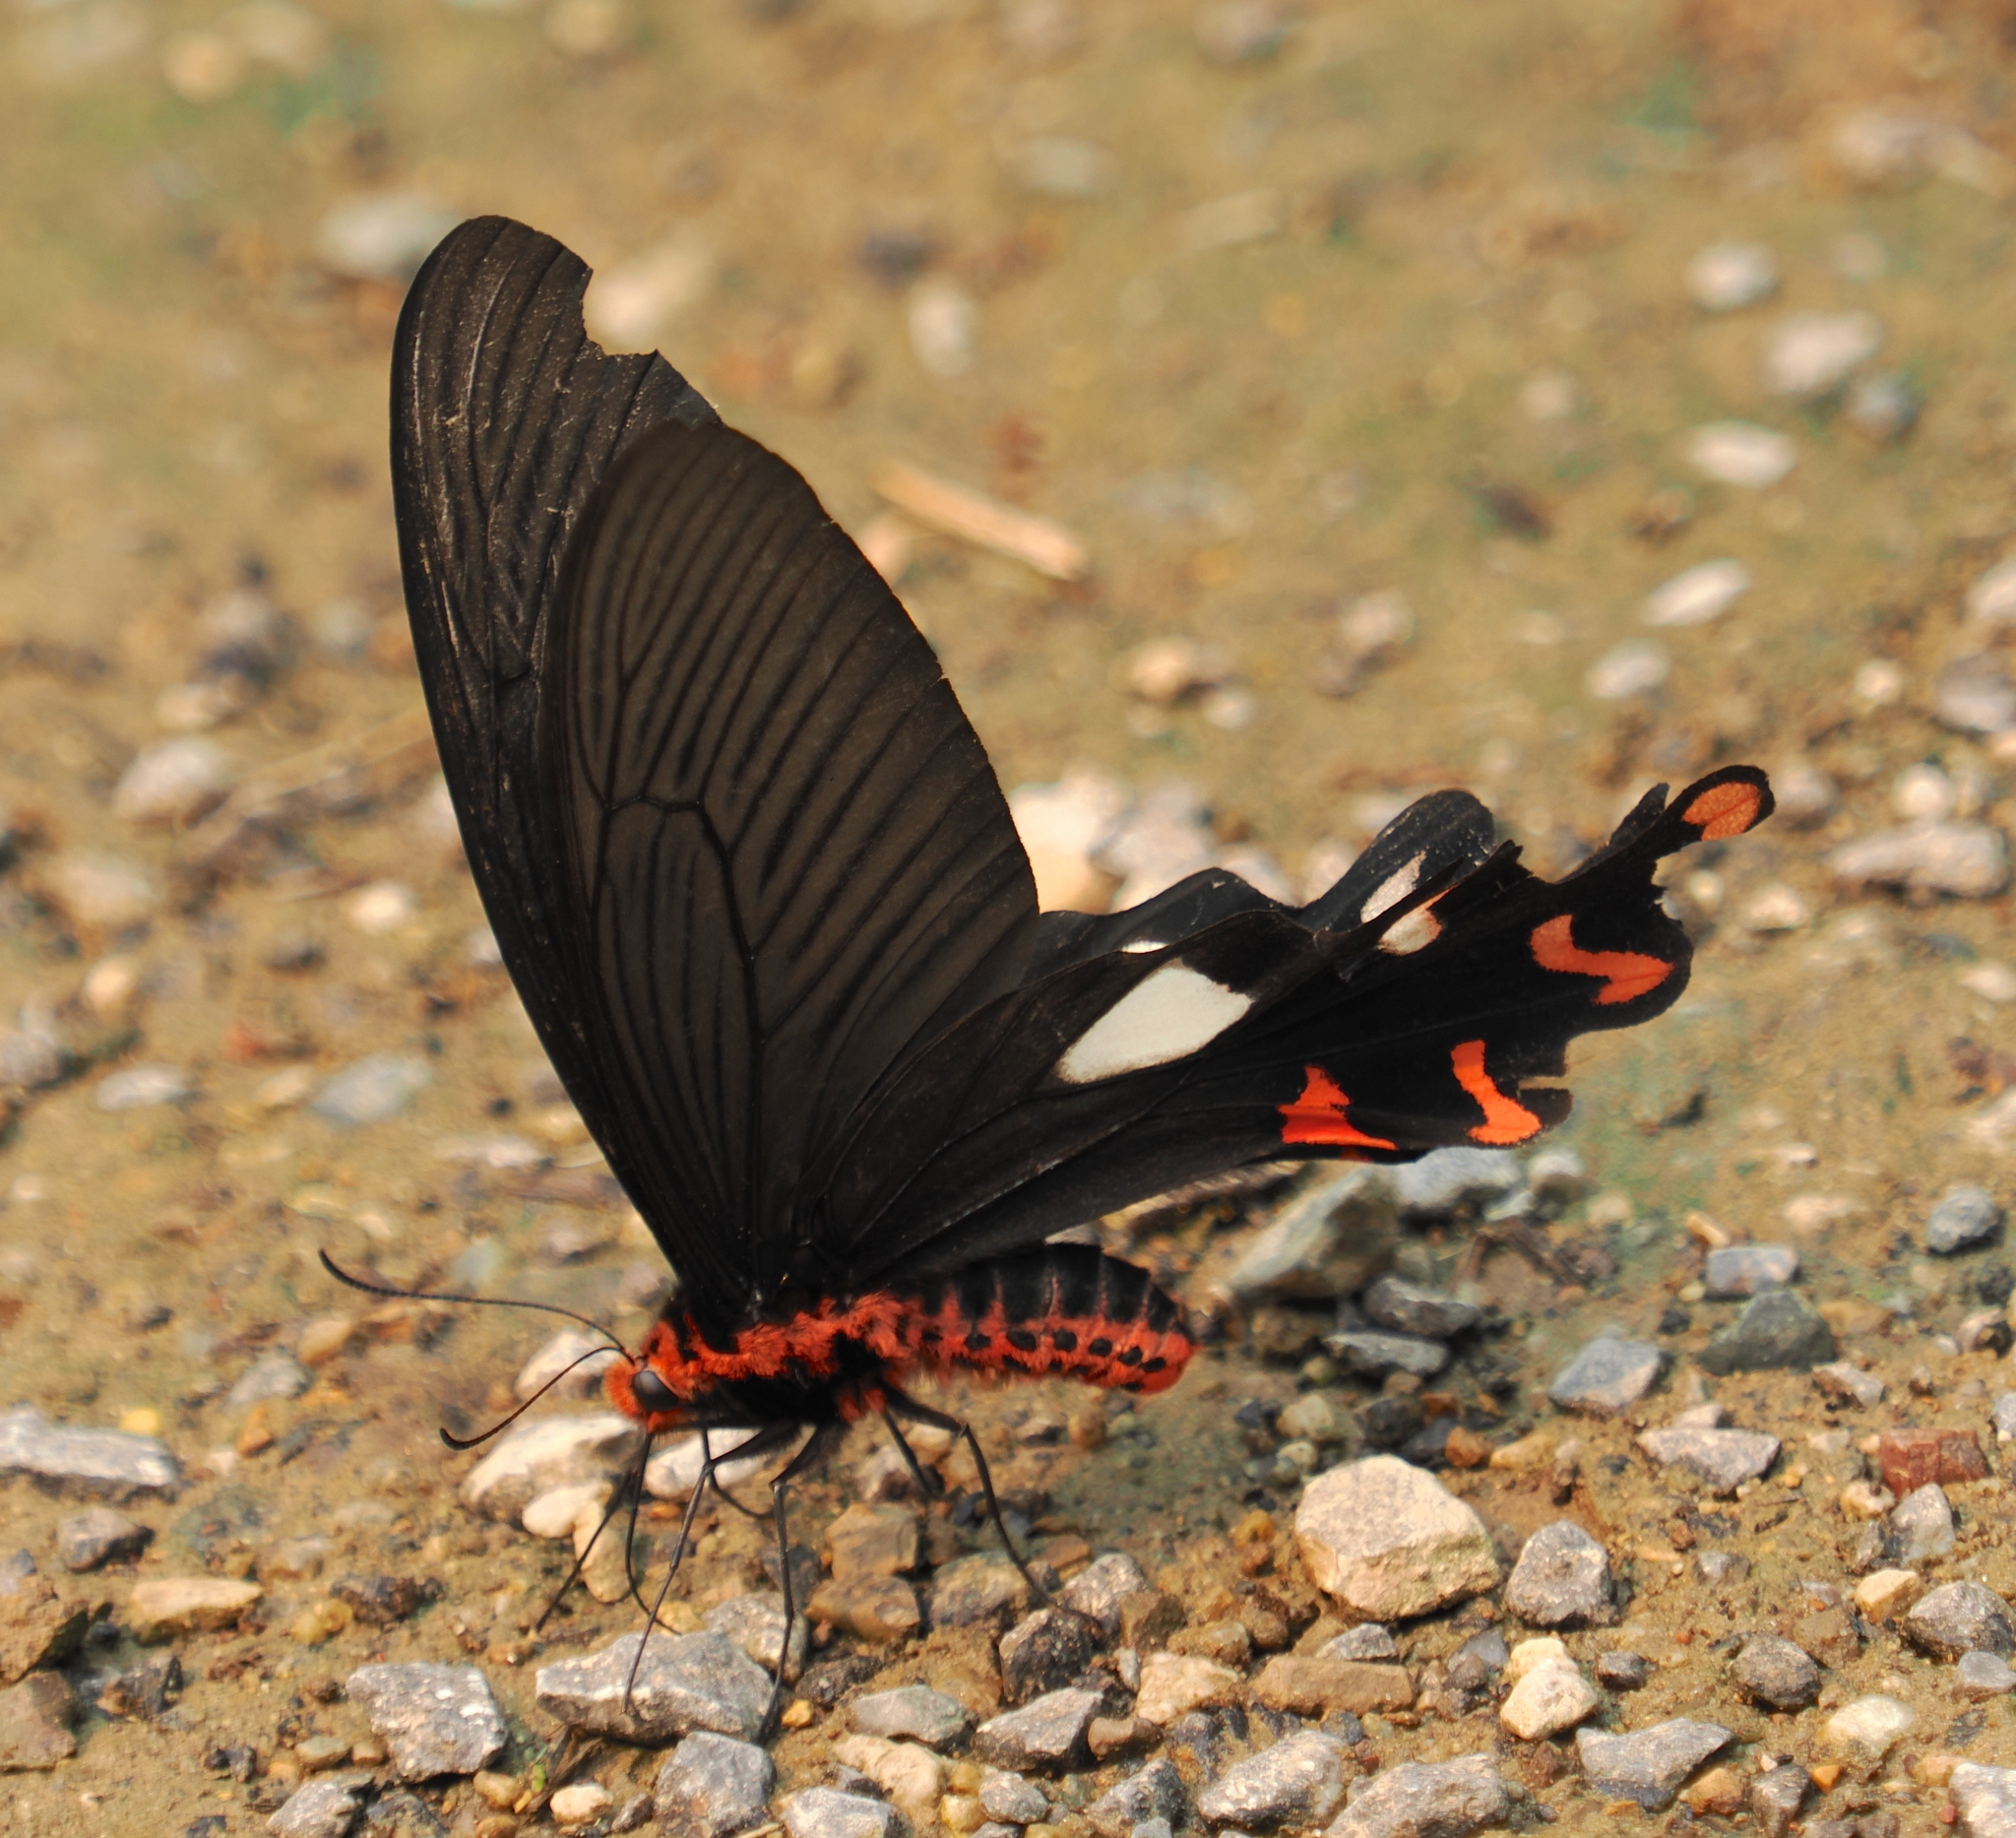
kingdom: Animalia
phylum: Arthropoda
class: Insecta
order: Lepidoptera
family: Papilionidae
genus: Byasa
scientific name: Byasa dasarada
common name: Great windmill
